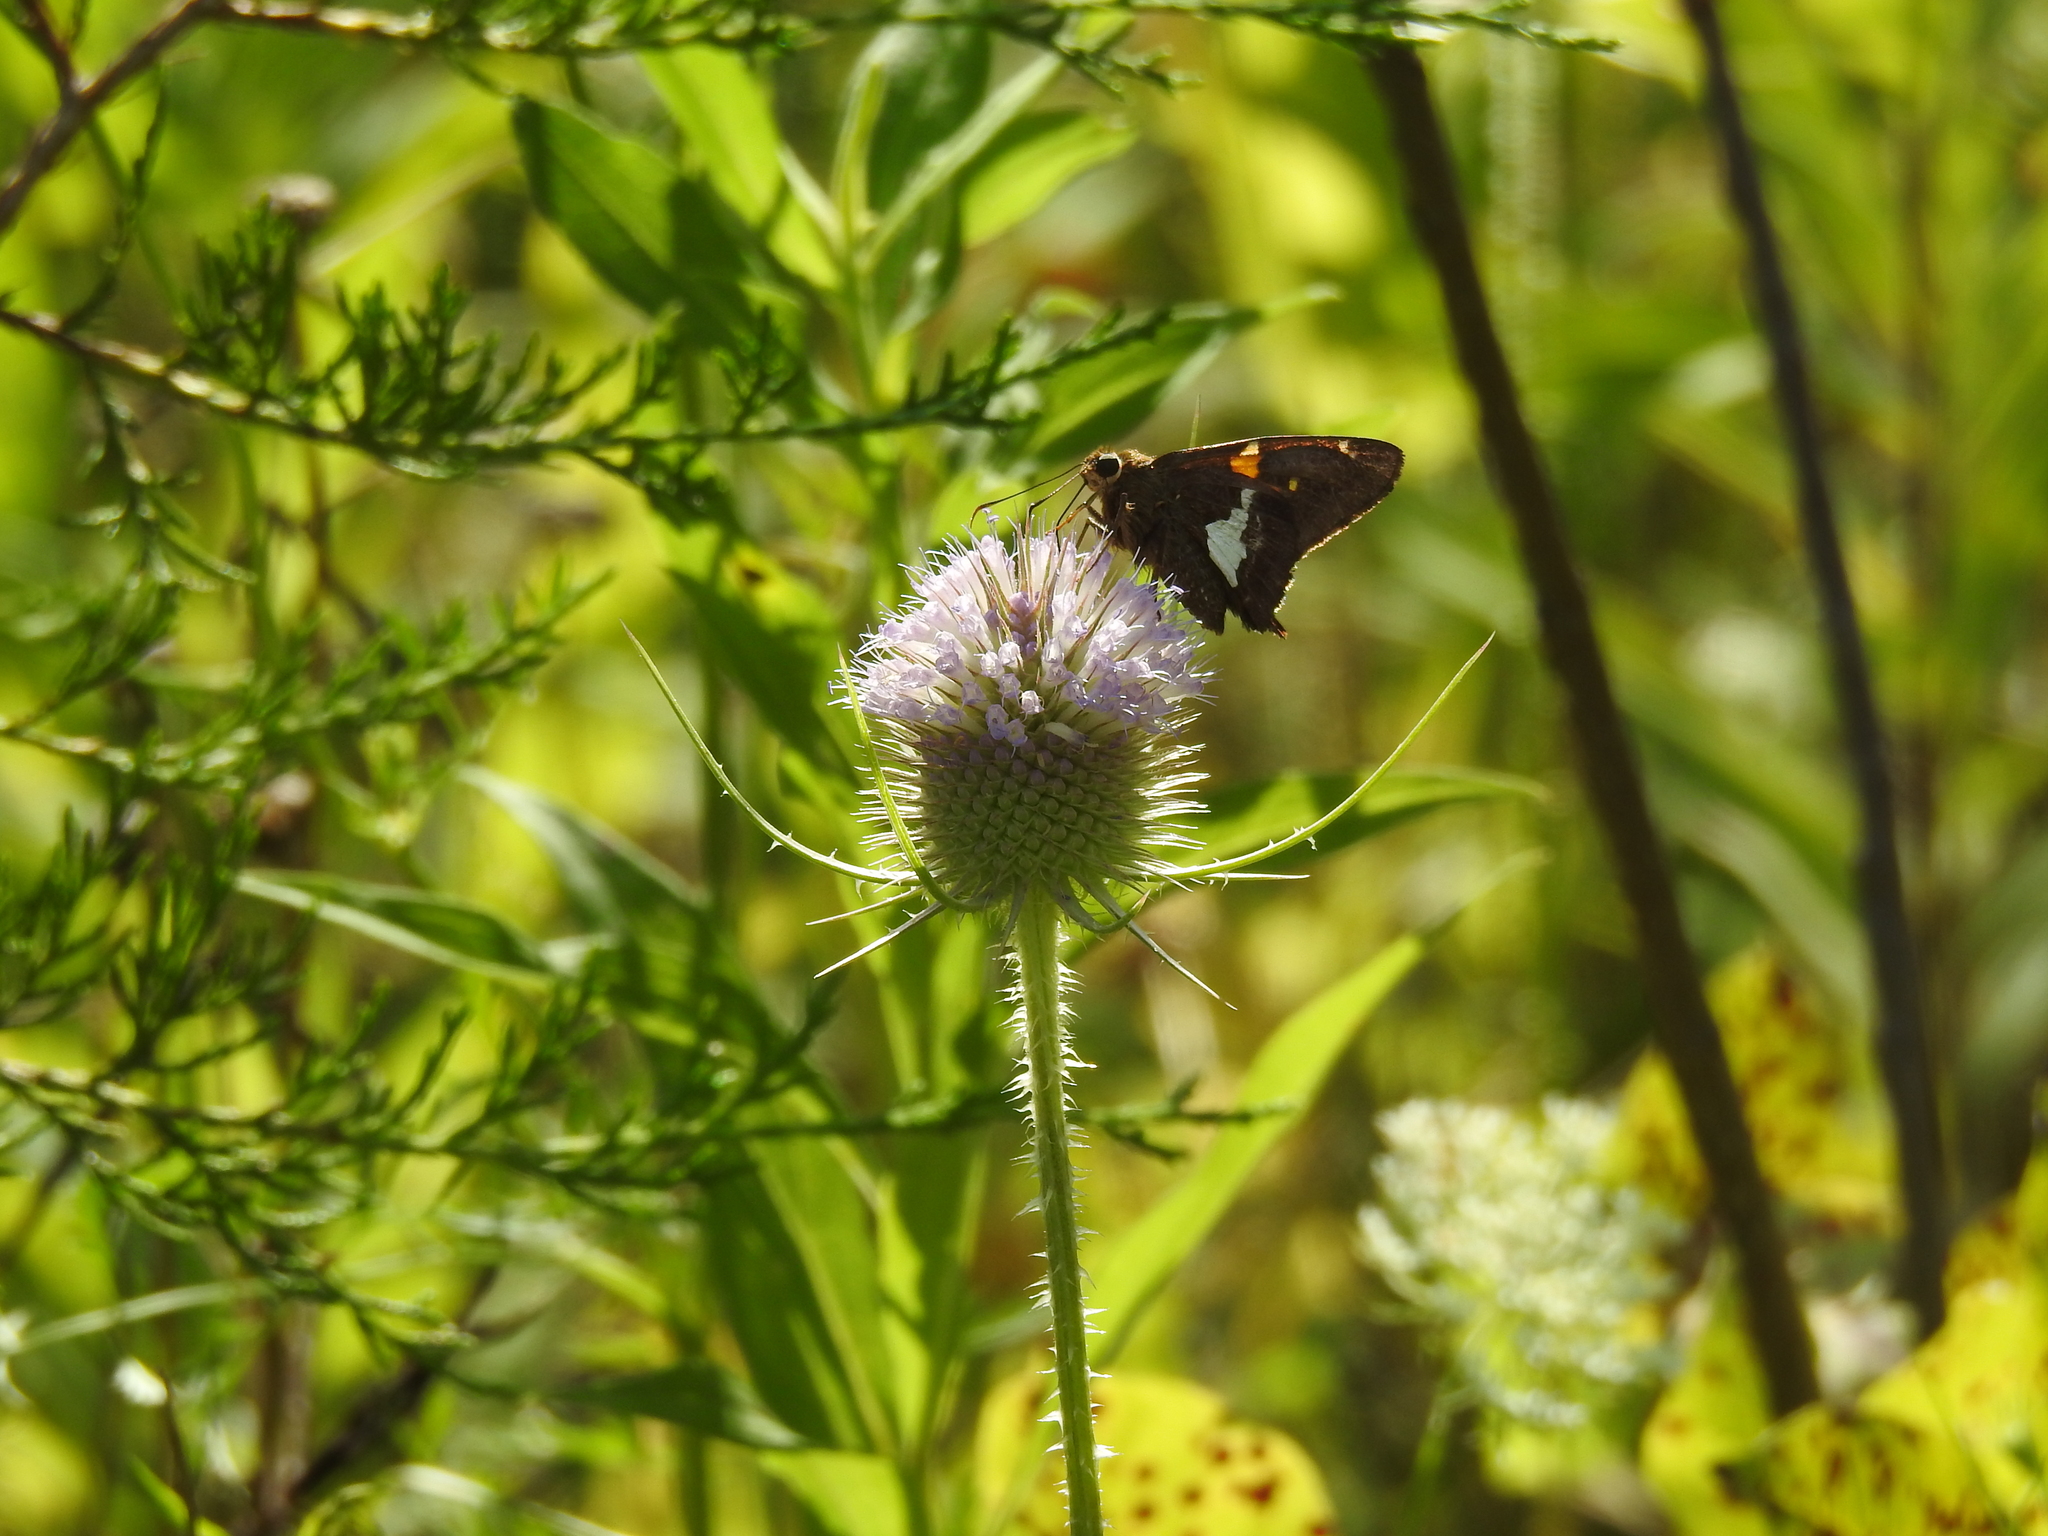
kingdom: Animalia
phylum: Arthropoda
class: Insecta
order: Lepidoptera
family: Hesperiidae
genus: Epargyreus
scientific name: Epargyreus clarus
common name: Silver-spotted skipper
